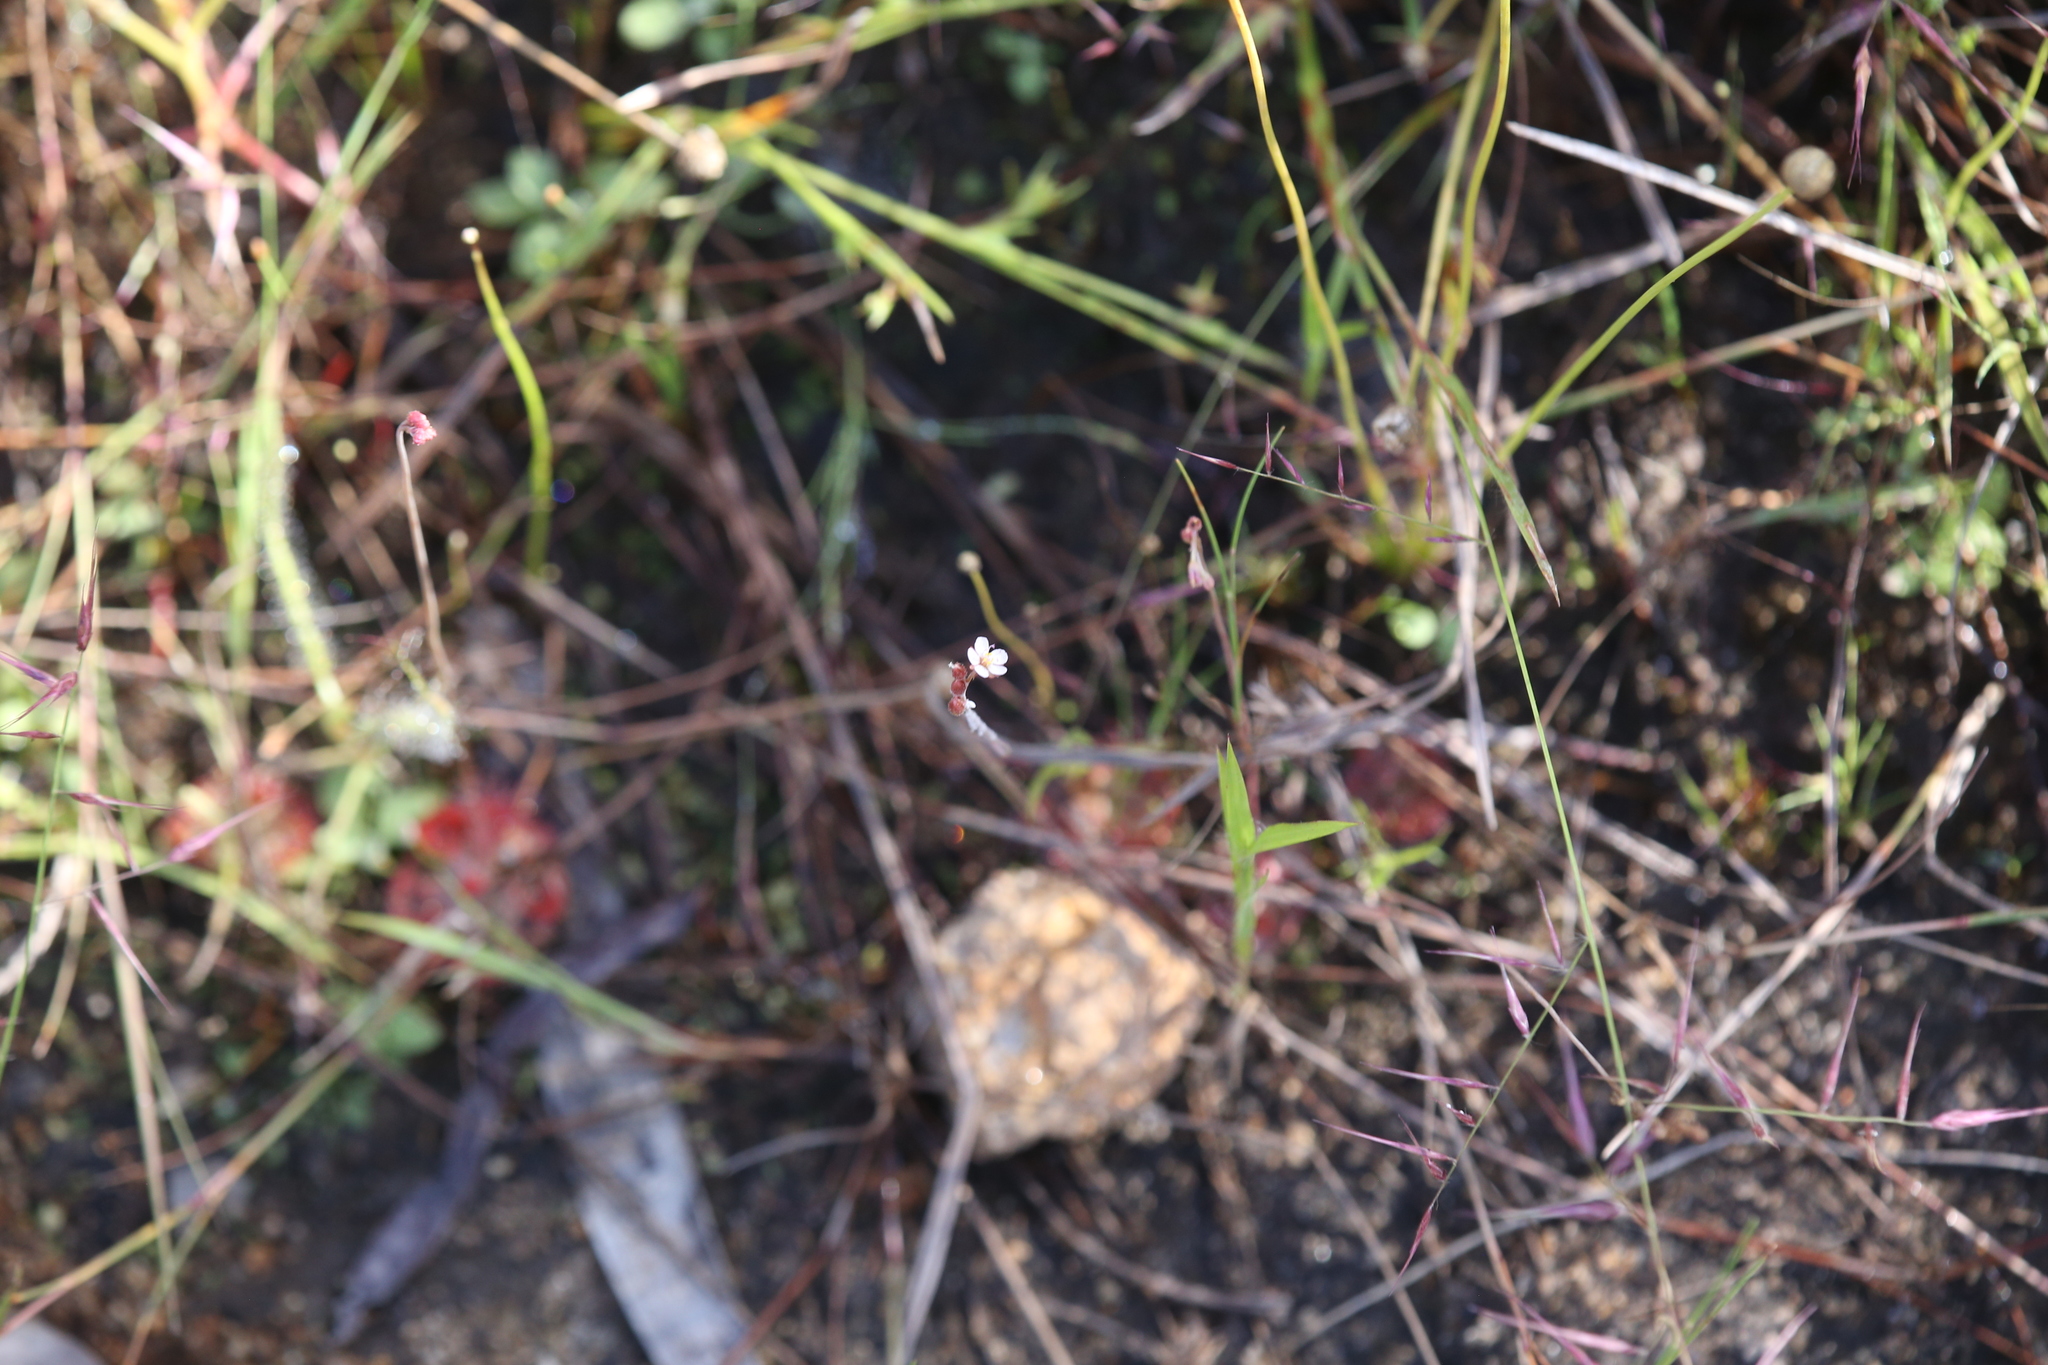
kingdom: Plantae
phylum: Tracheophyta
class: Magnoliopsida
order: Caryophyllales
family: Droseraceae
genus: Drosera
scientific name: Drosera spatulata
